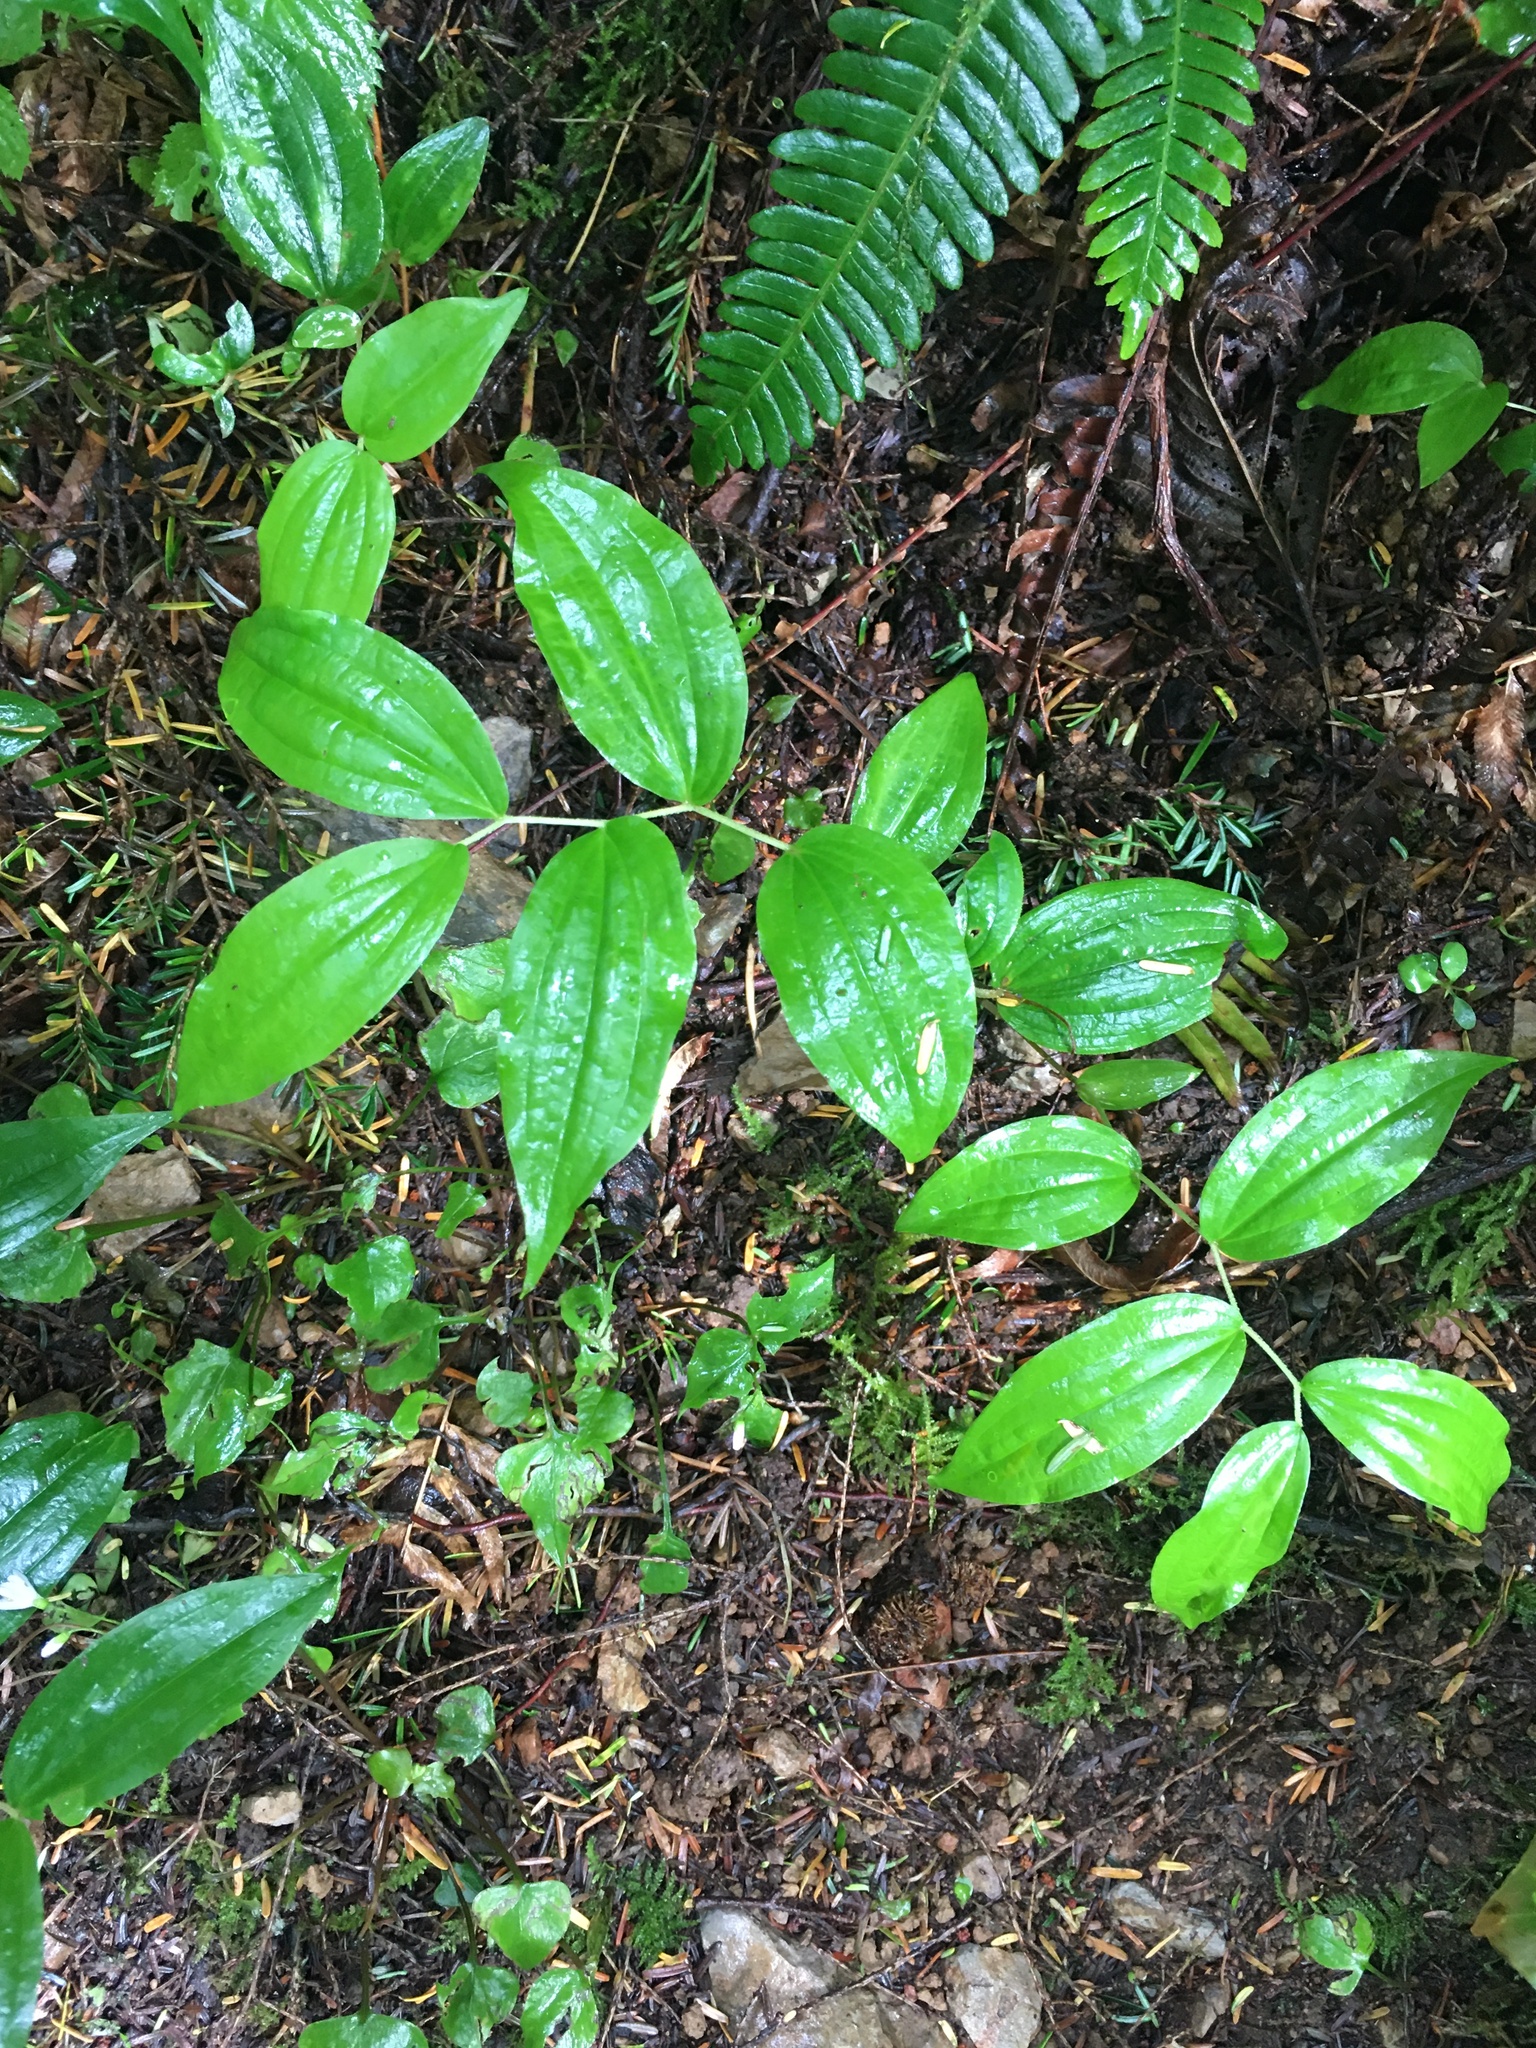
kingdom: Plantae
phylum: Tracheophyta
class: Liliopsida
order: Liliales
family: Liliaceae
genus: Prosartes
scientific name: Prosartes smithii
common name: Fairy-lantern
